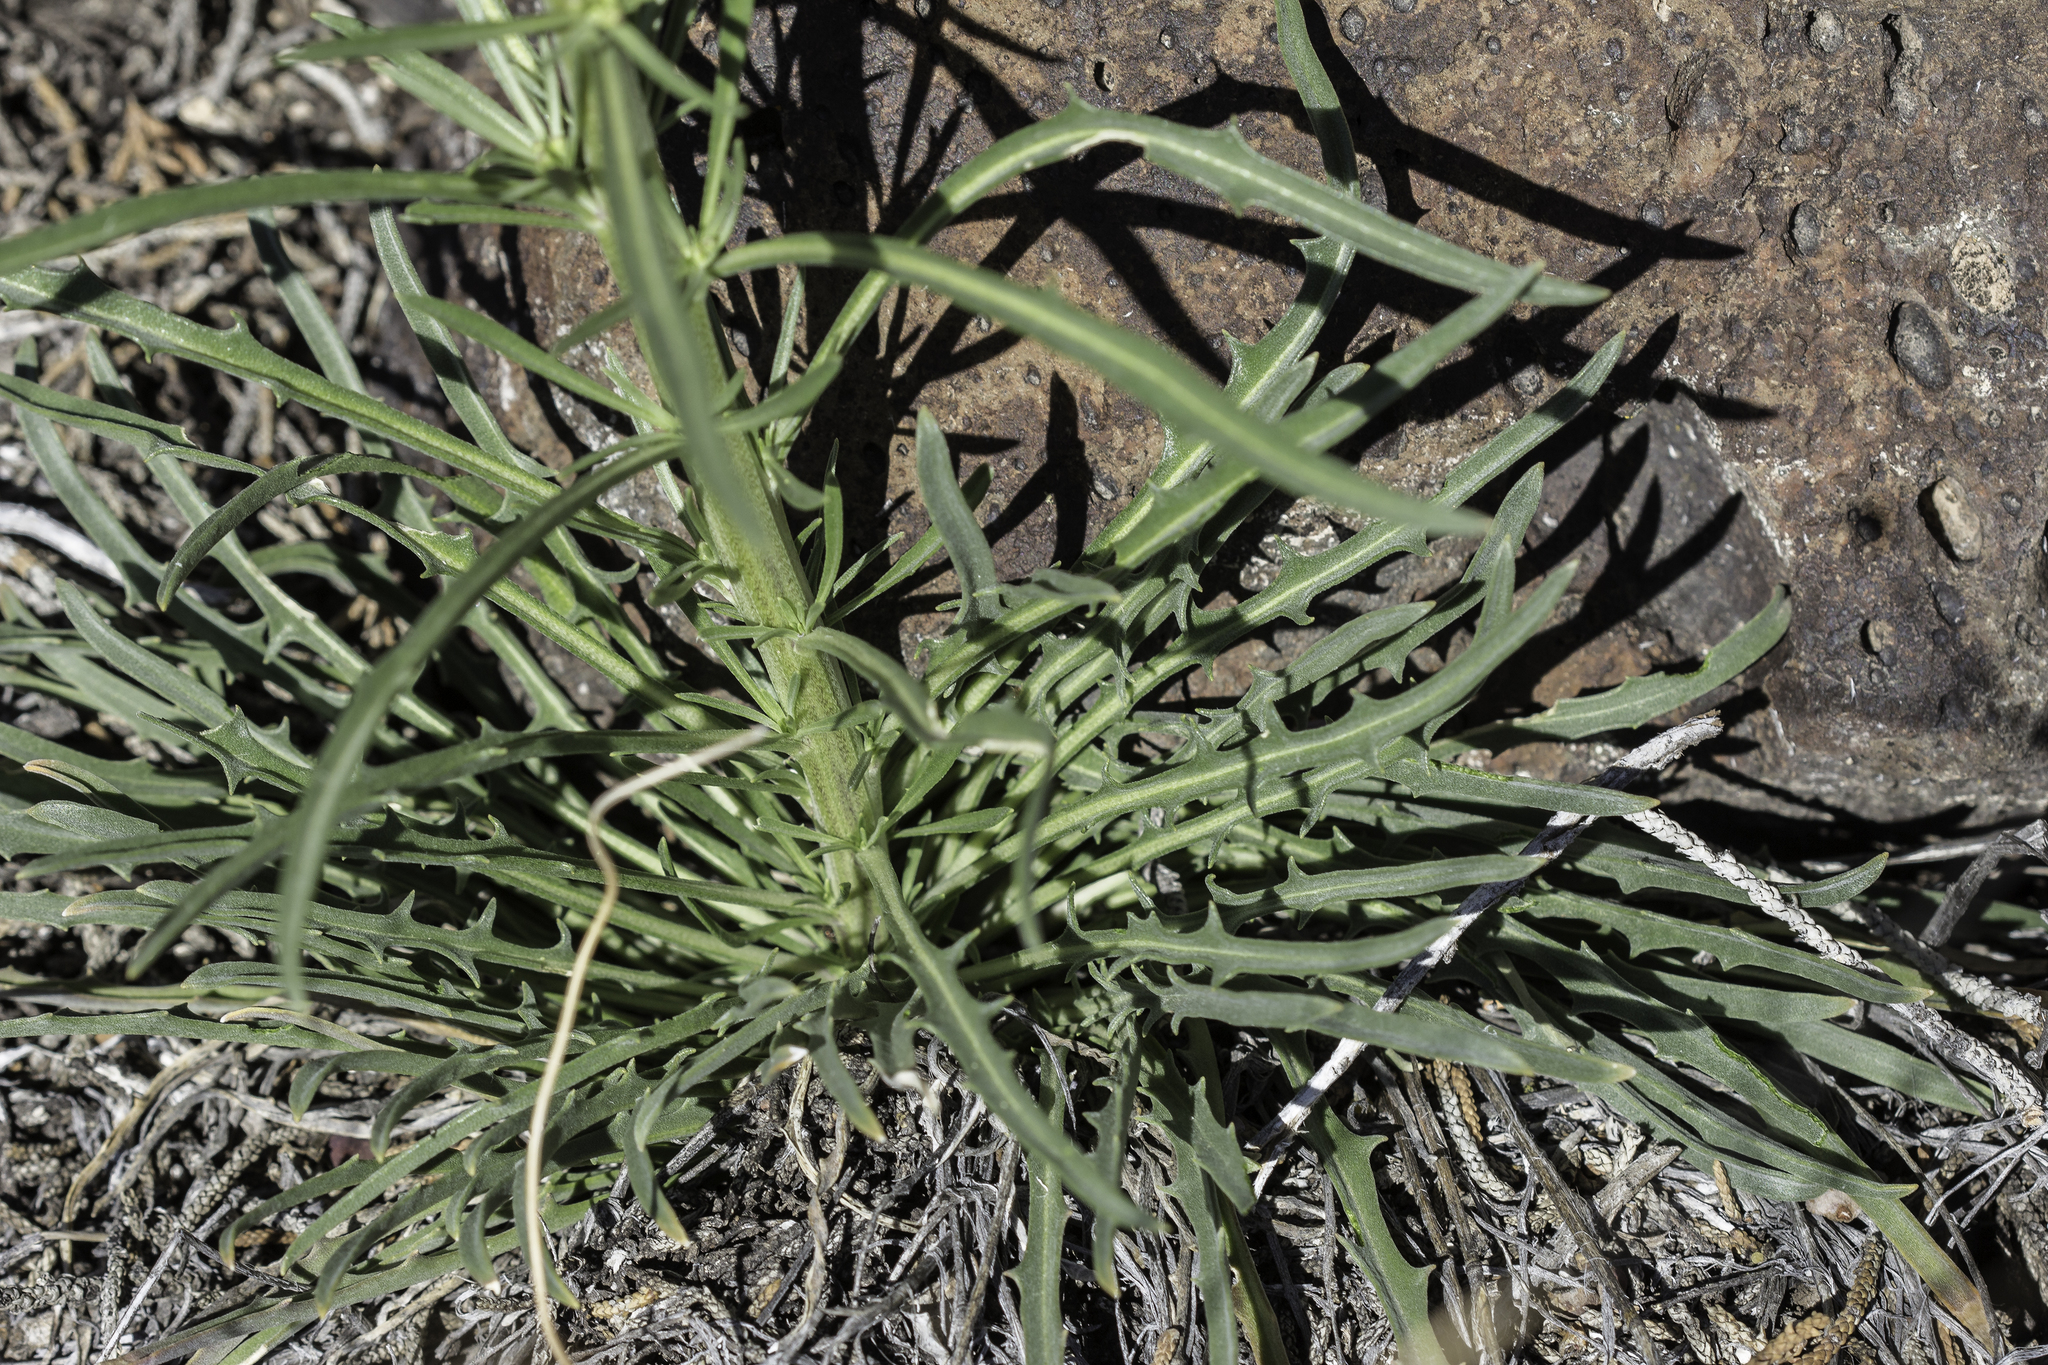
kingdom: Plantae
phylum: Tracheophyta
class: Magnoliopsida
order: Brassicales
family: Brassicaceae
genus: Erysimum
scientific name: Erysimum capitatum
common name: Western wallflower
